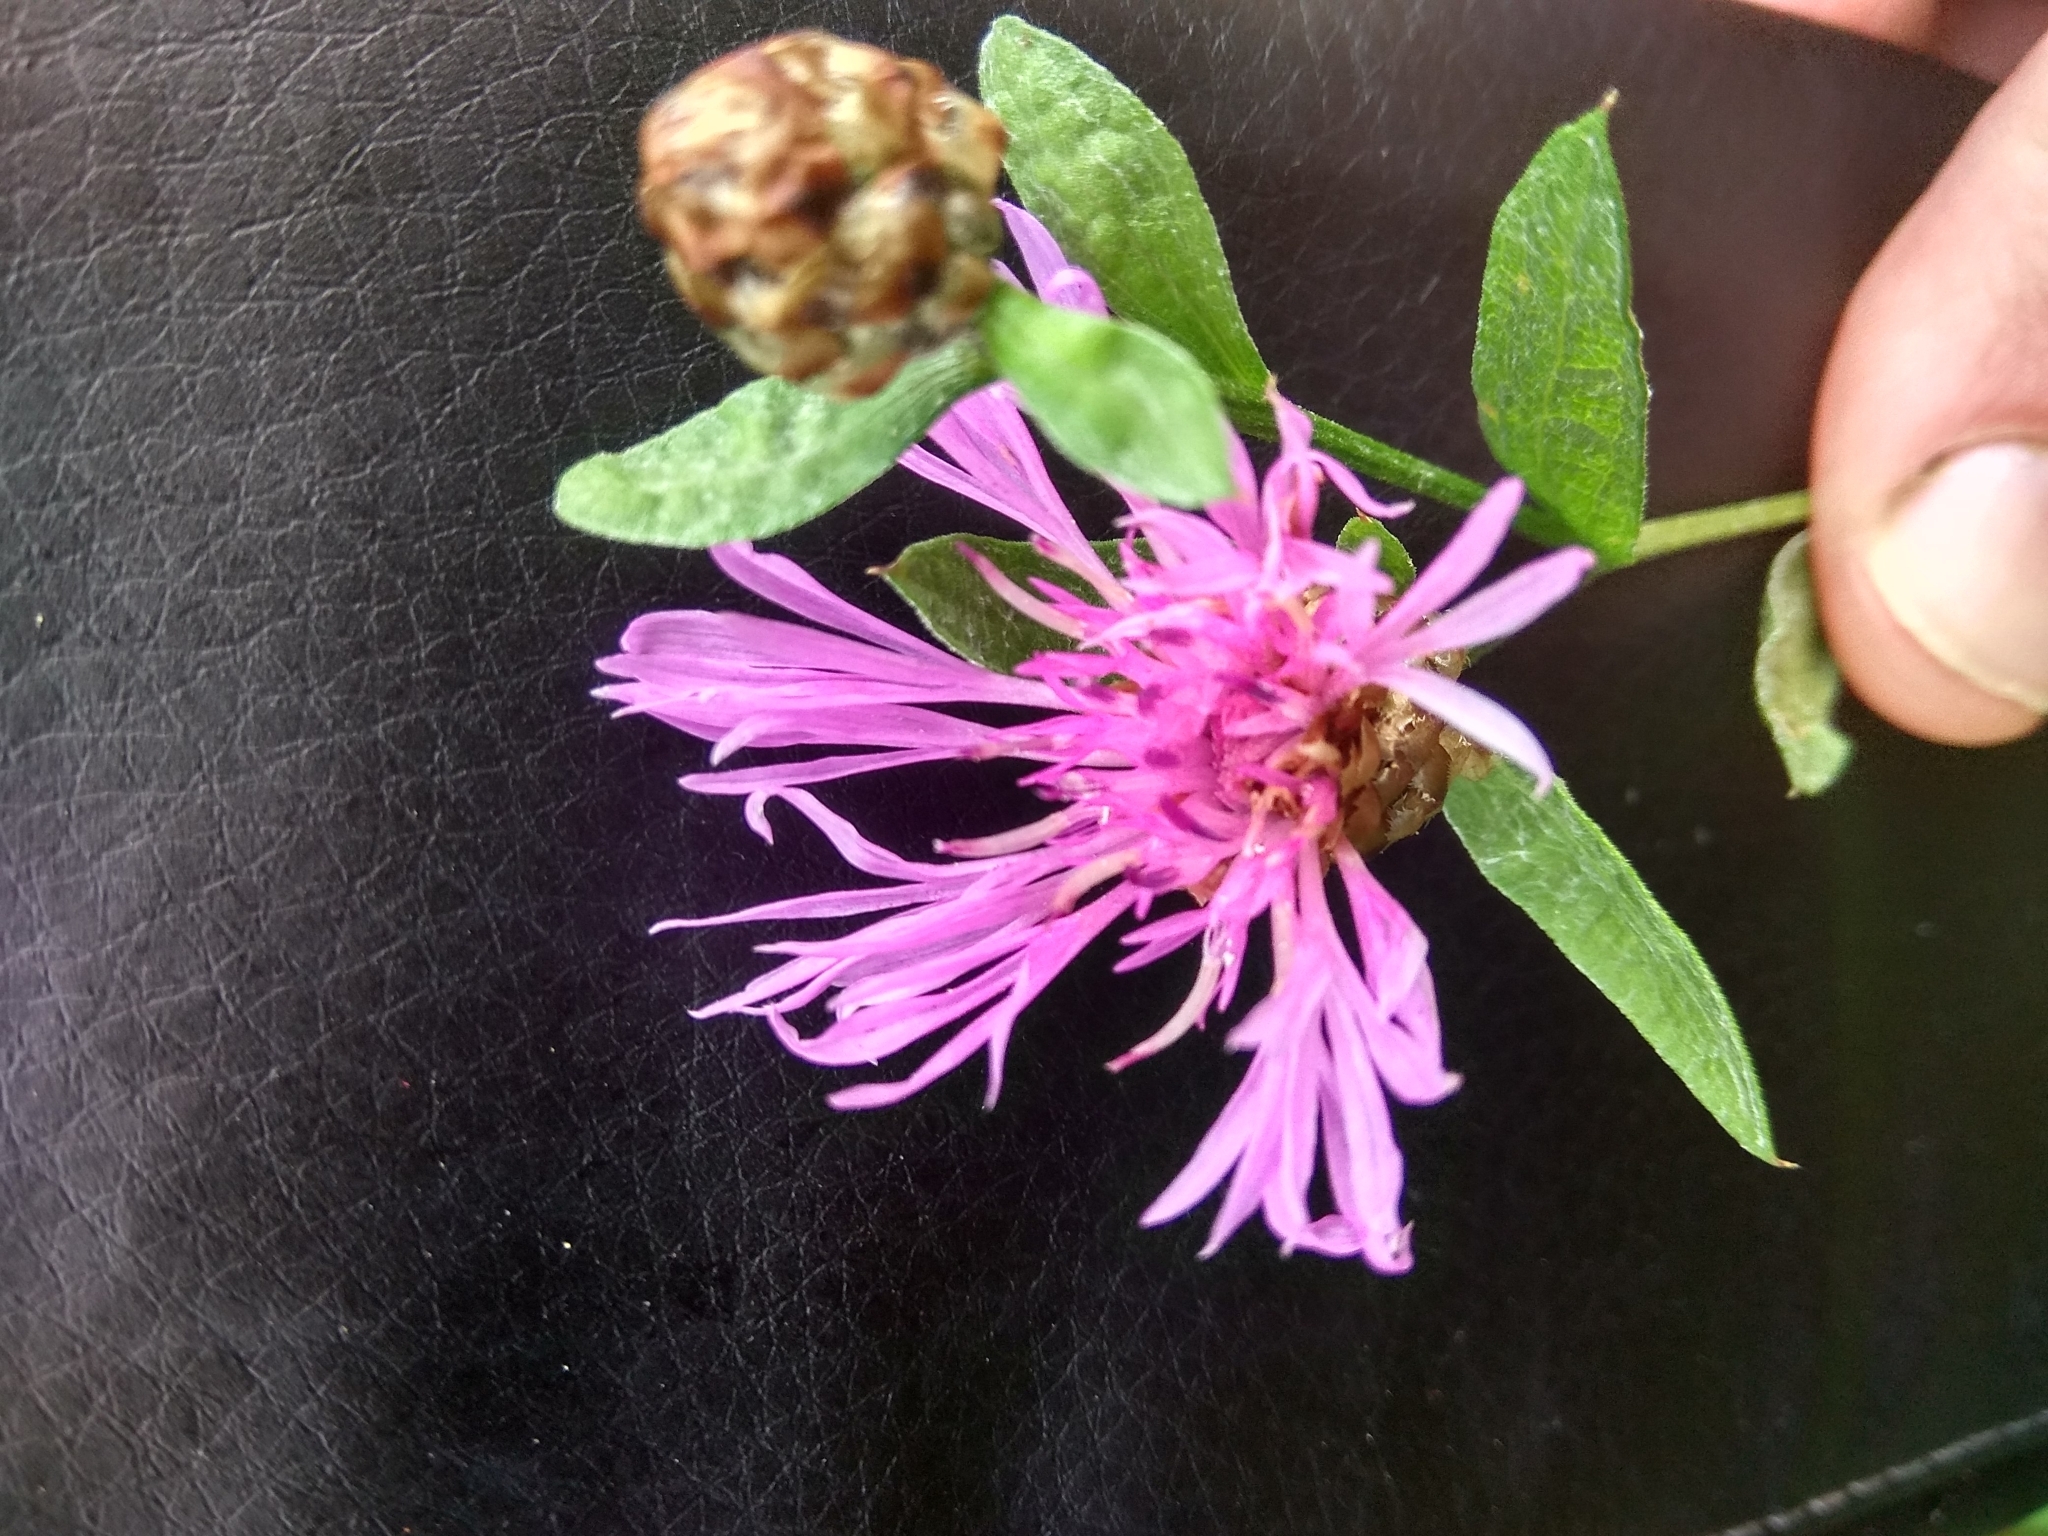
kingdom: Plantae
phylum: Tracheophyta
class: Magnoliopsida
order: Asterales
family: Asteraceae
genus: Centaurea
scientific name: Centaurea jacea
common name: Brown knapweed
